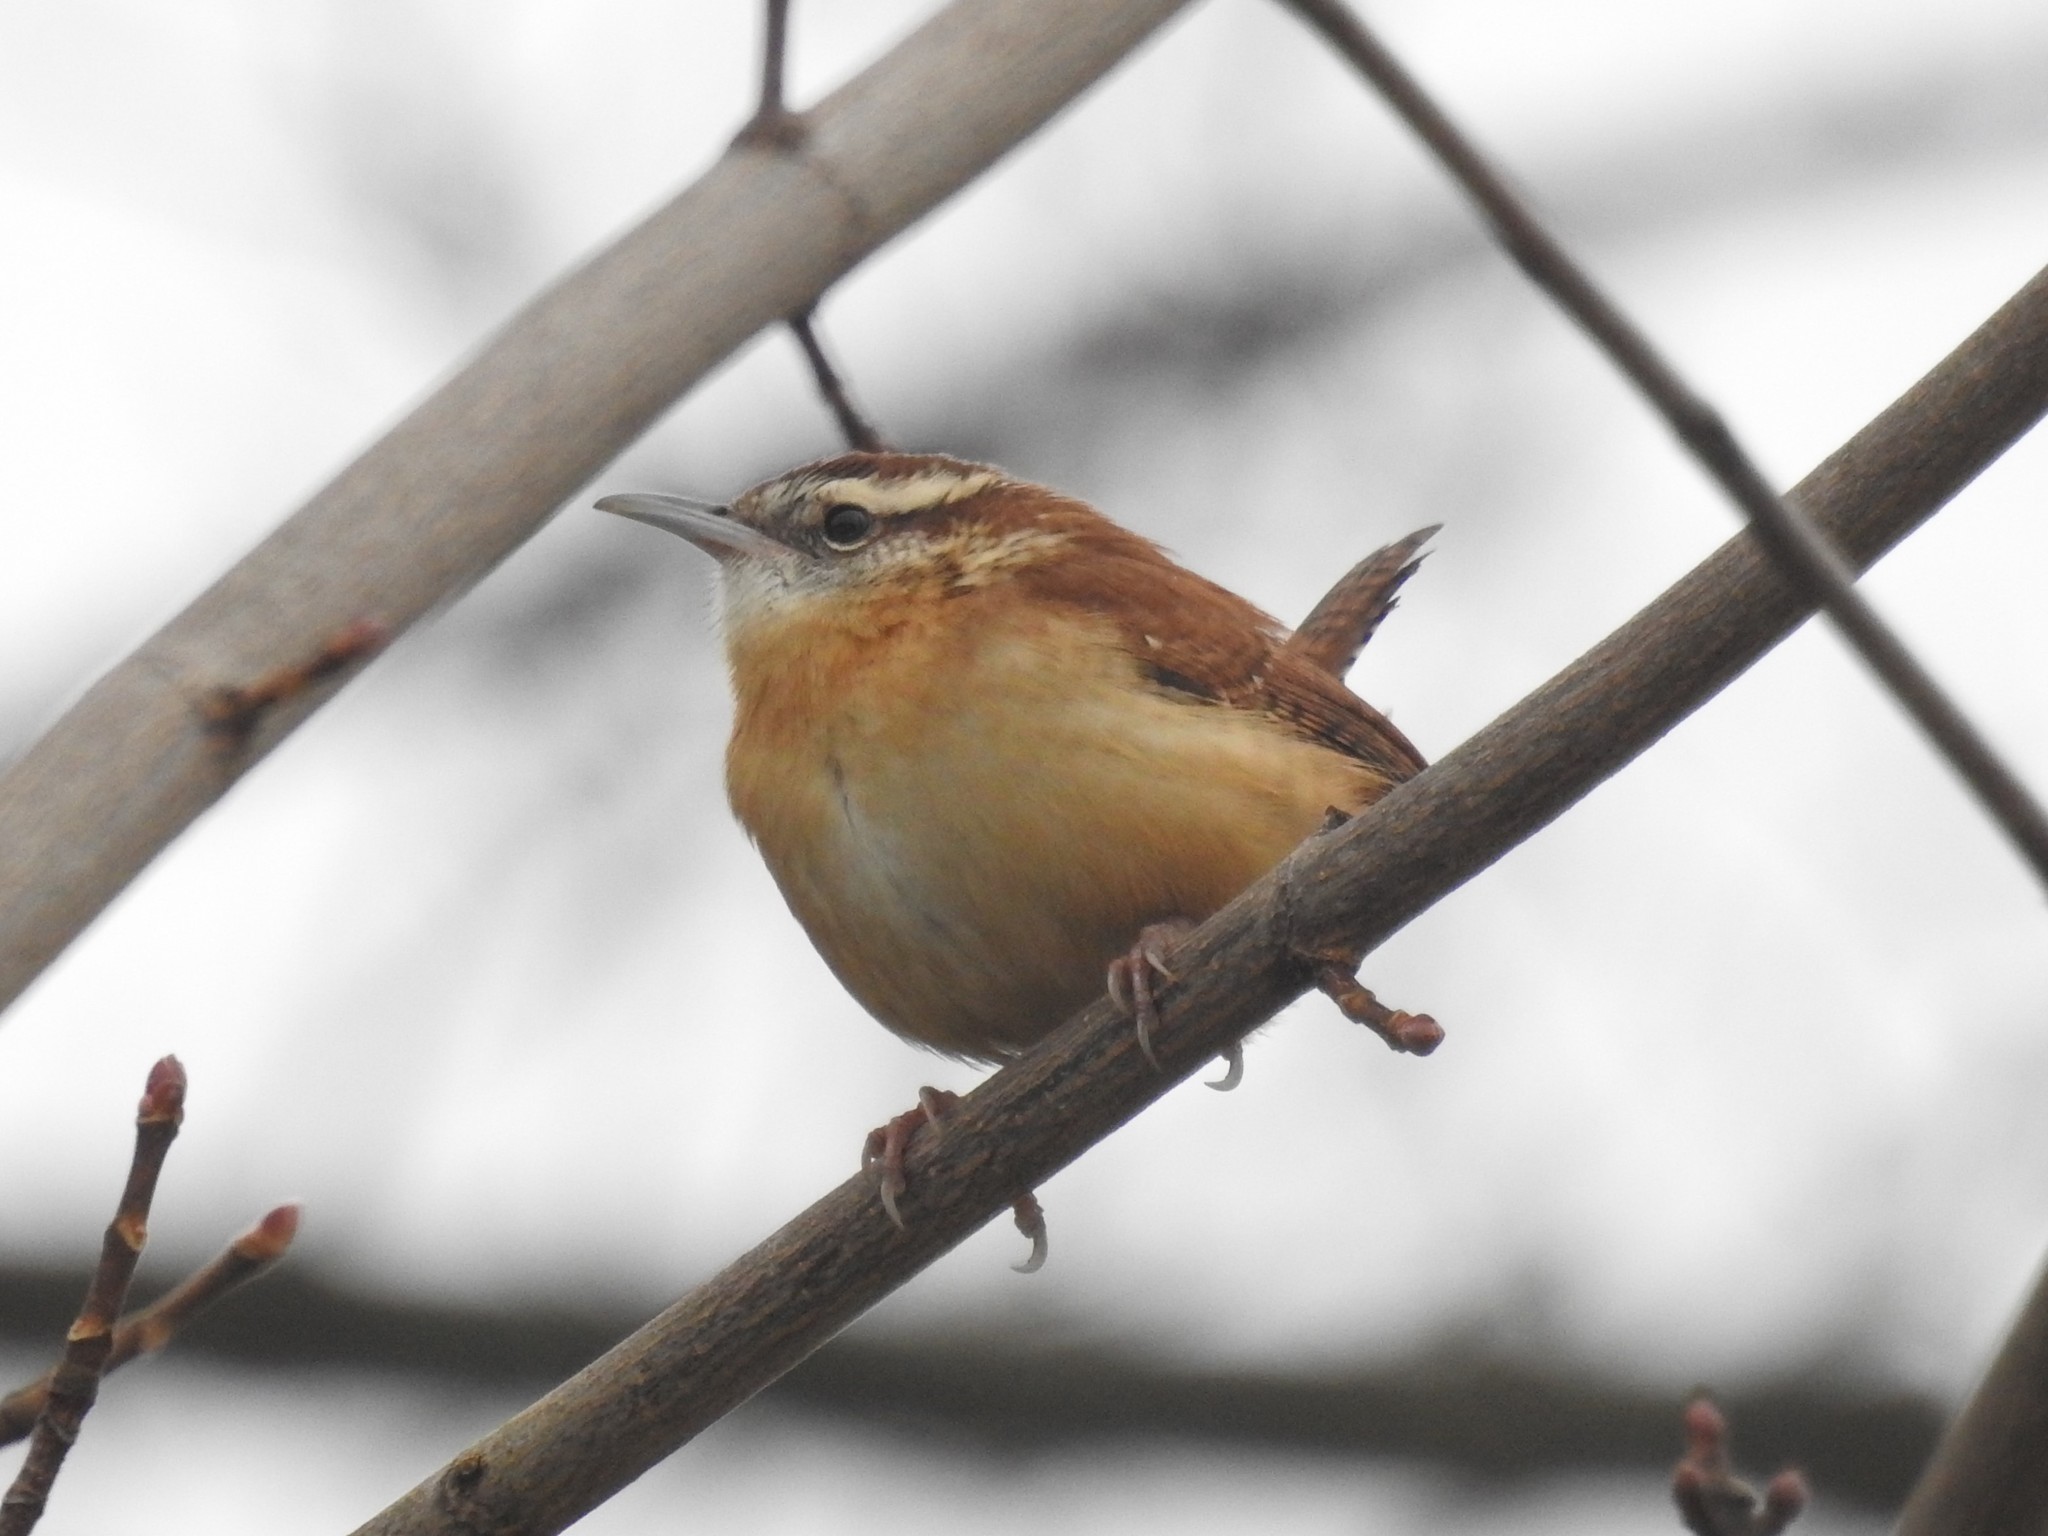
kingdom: Animalia
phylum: Chordata
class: Aves
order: Passeriformes
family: Troglodytidae
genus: Thryothorus
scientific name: Thryothorus ludovicianus
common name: Carolina wren
